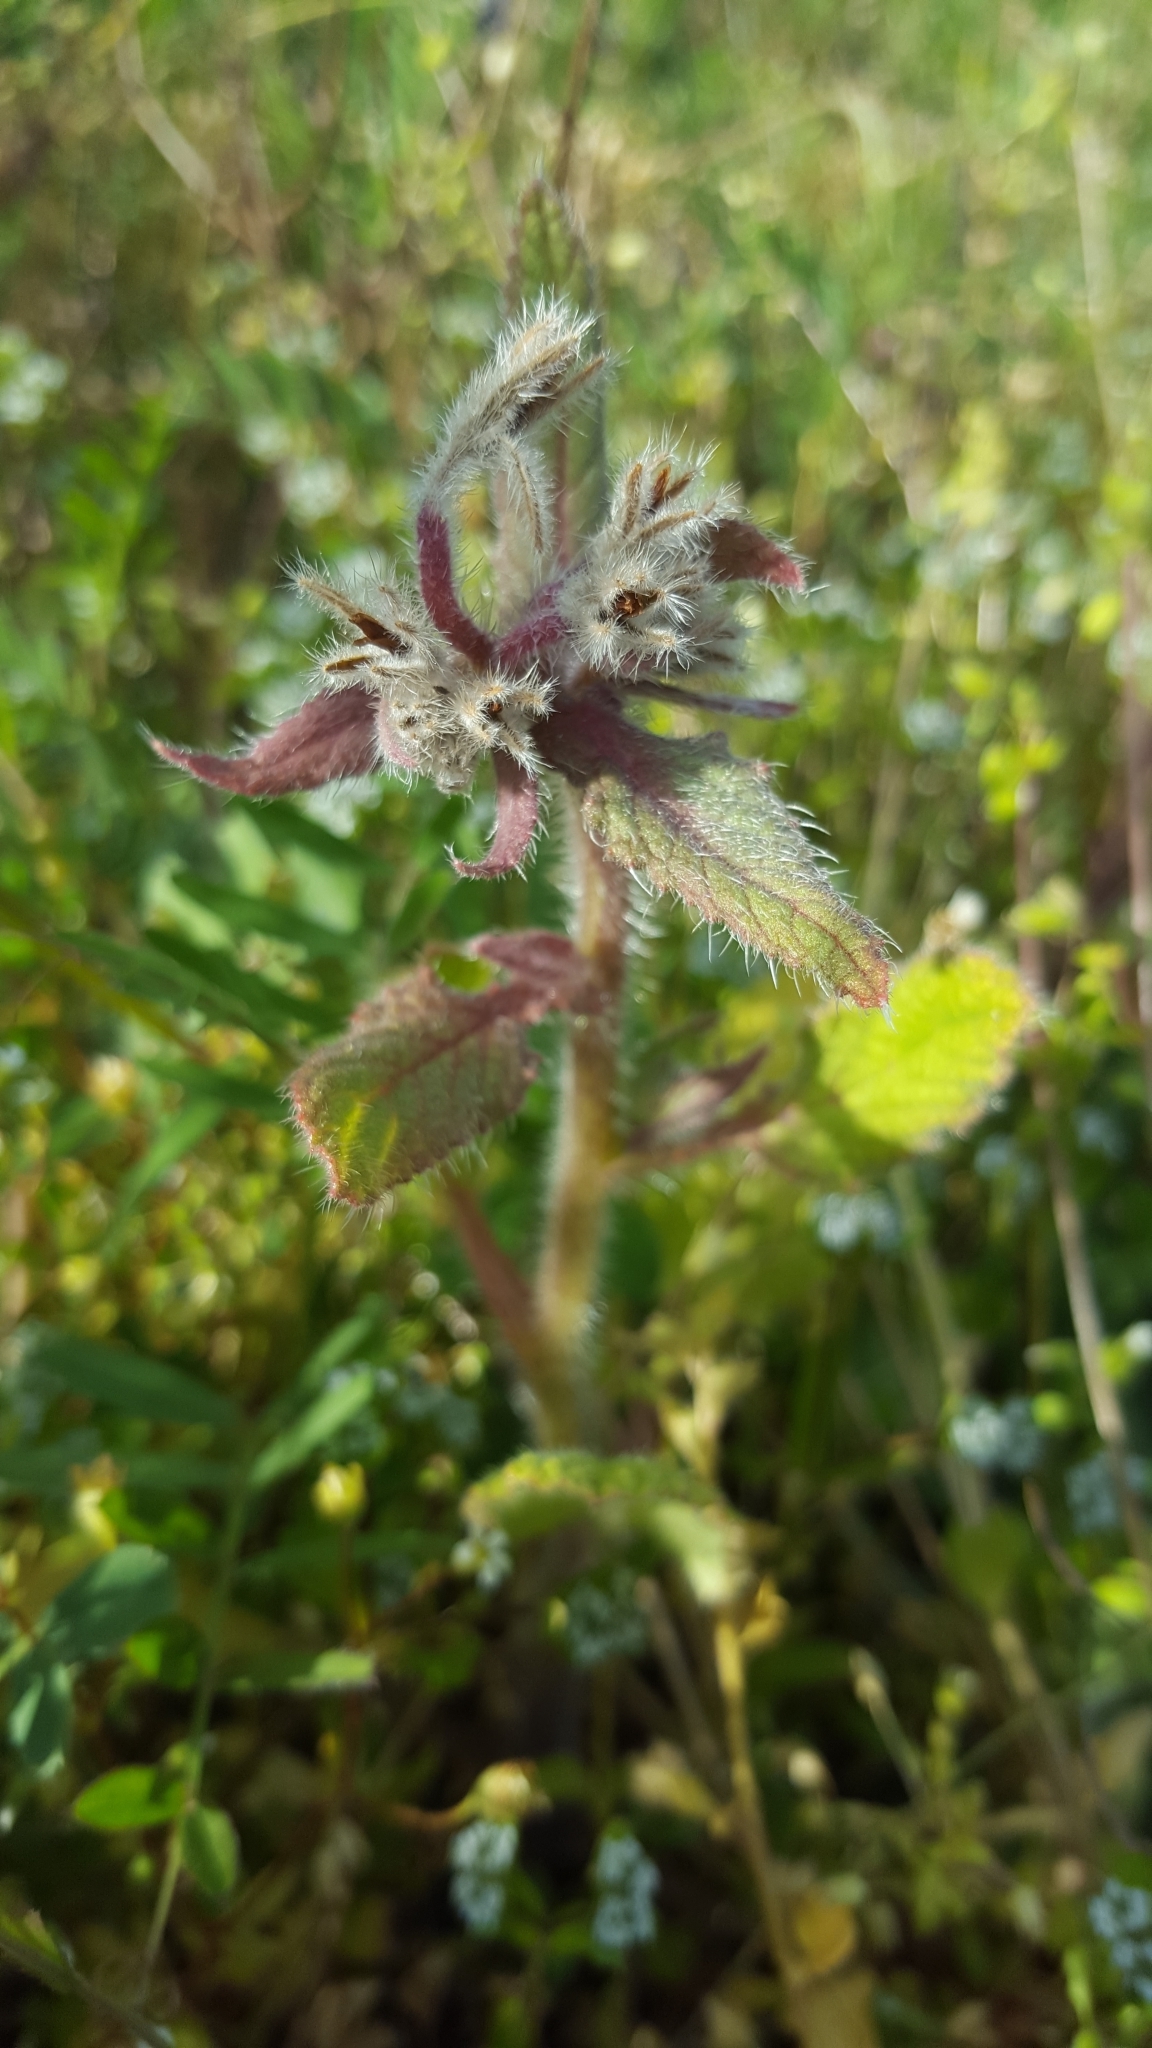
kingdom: Plantae
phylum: Tracheophyta
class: Magnoliopsida
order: Boraginales
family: Boraginaceae
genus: Borago
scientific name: Borago officinalis
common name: Borage
